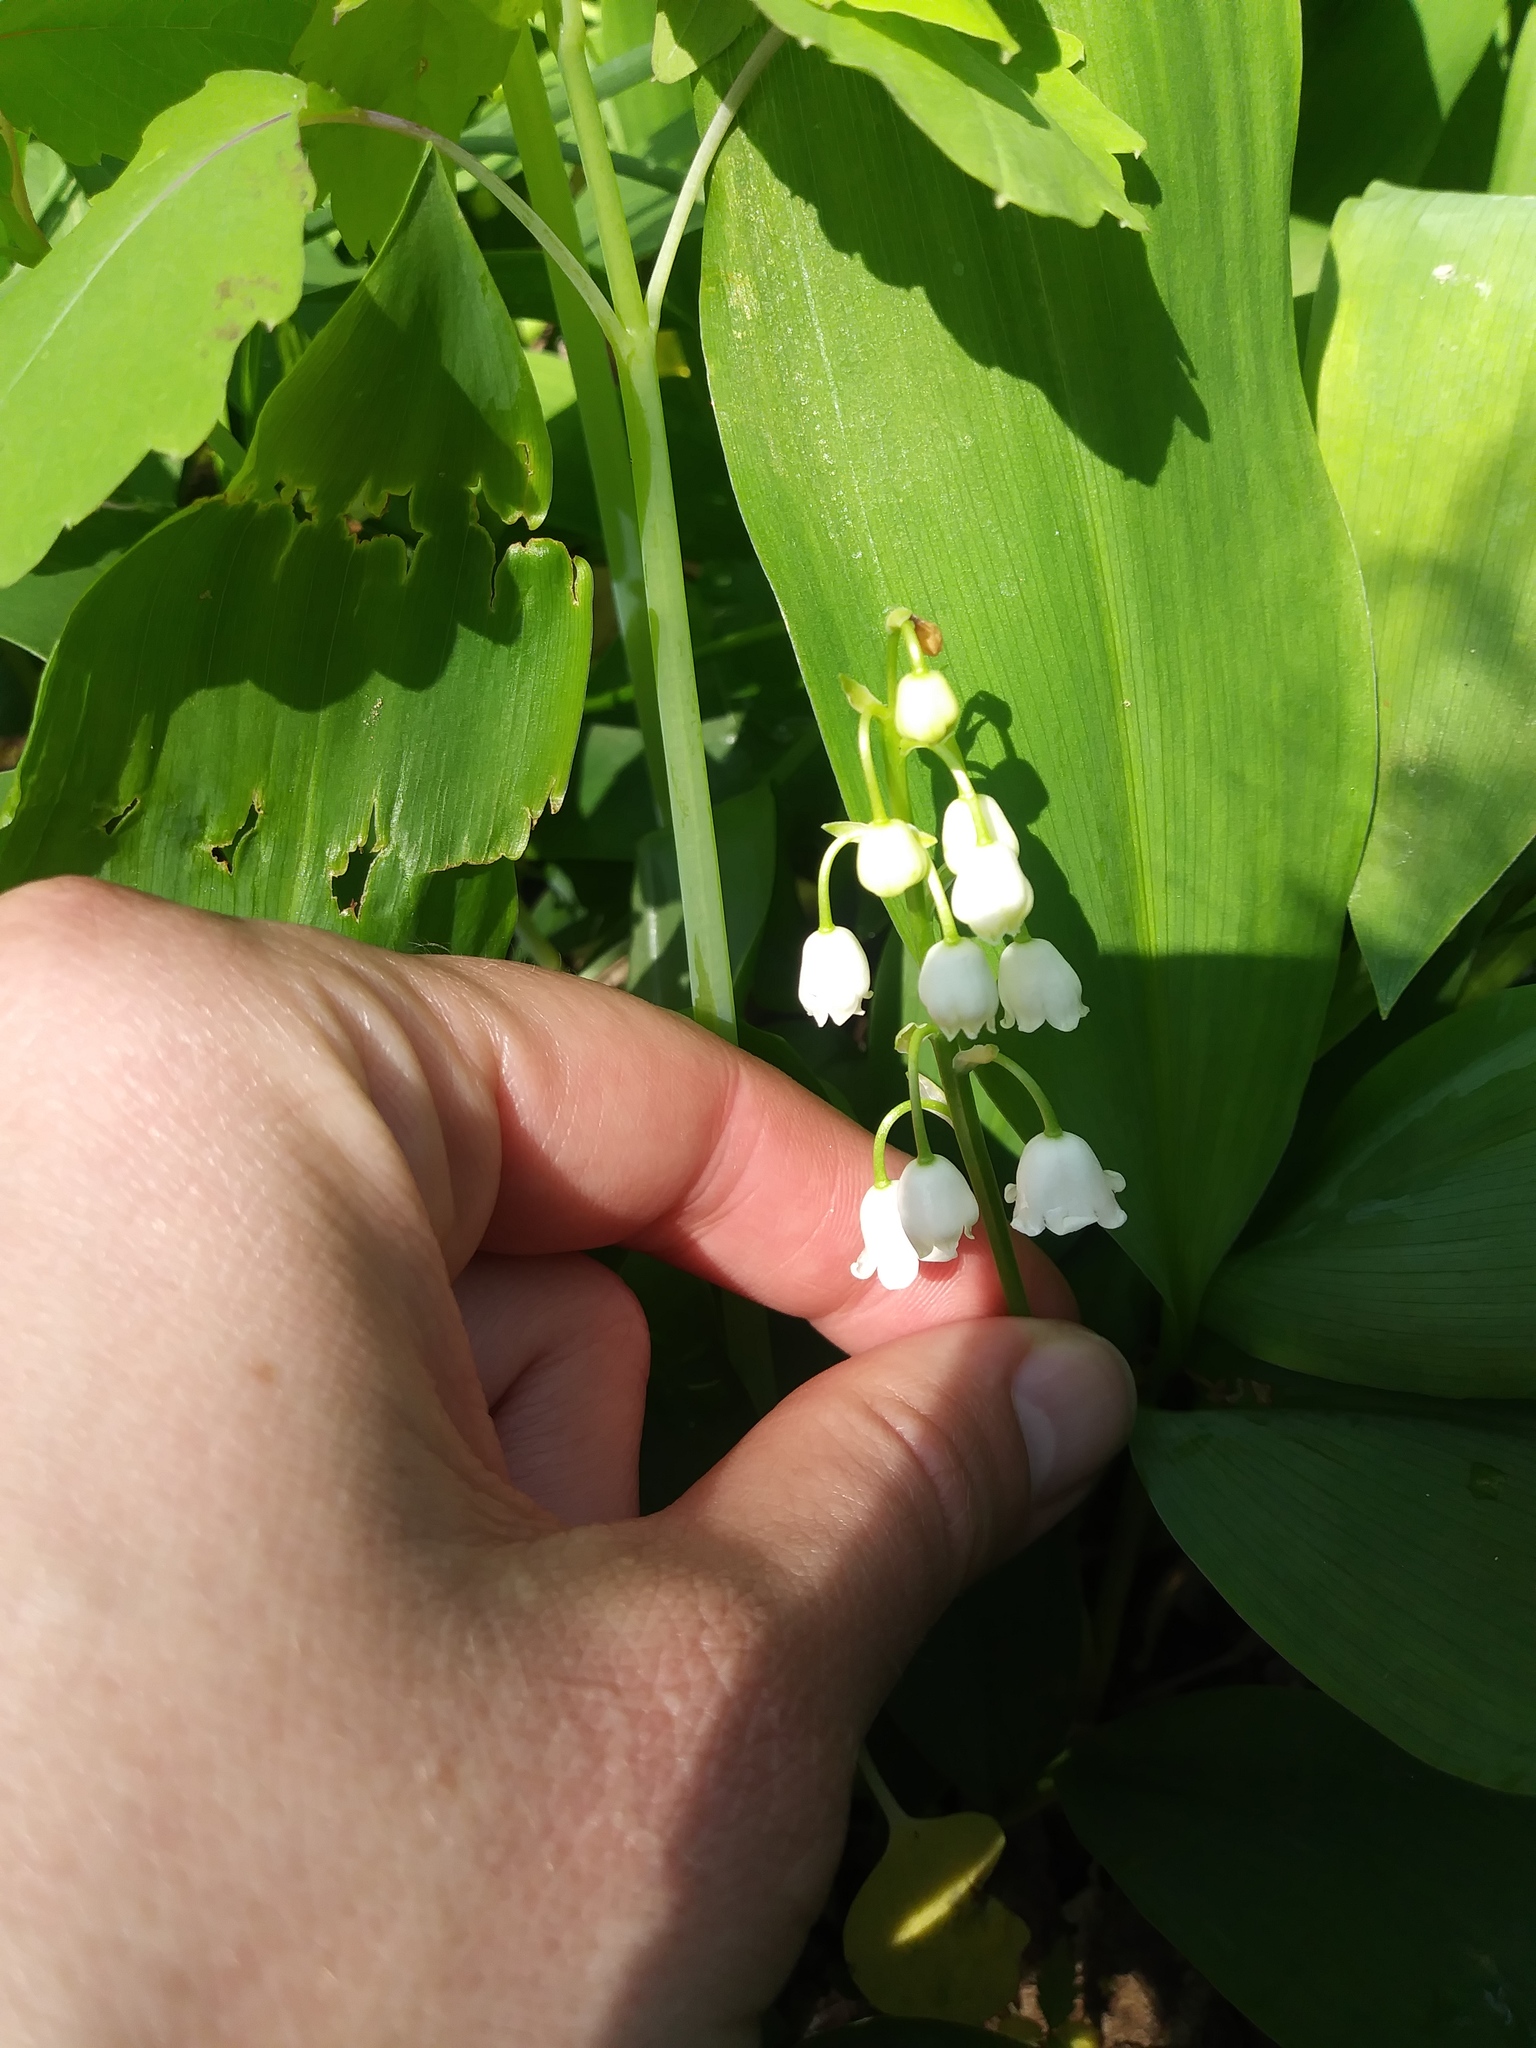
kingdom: Plantae
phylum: Tracheophyta
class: Liliopsida
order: Asparagales
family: Asparagaceae
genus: Convallaria
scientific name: Convallaria majalis
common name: Lily-of-the-valley
